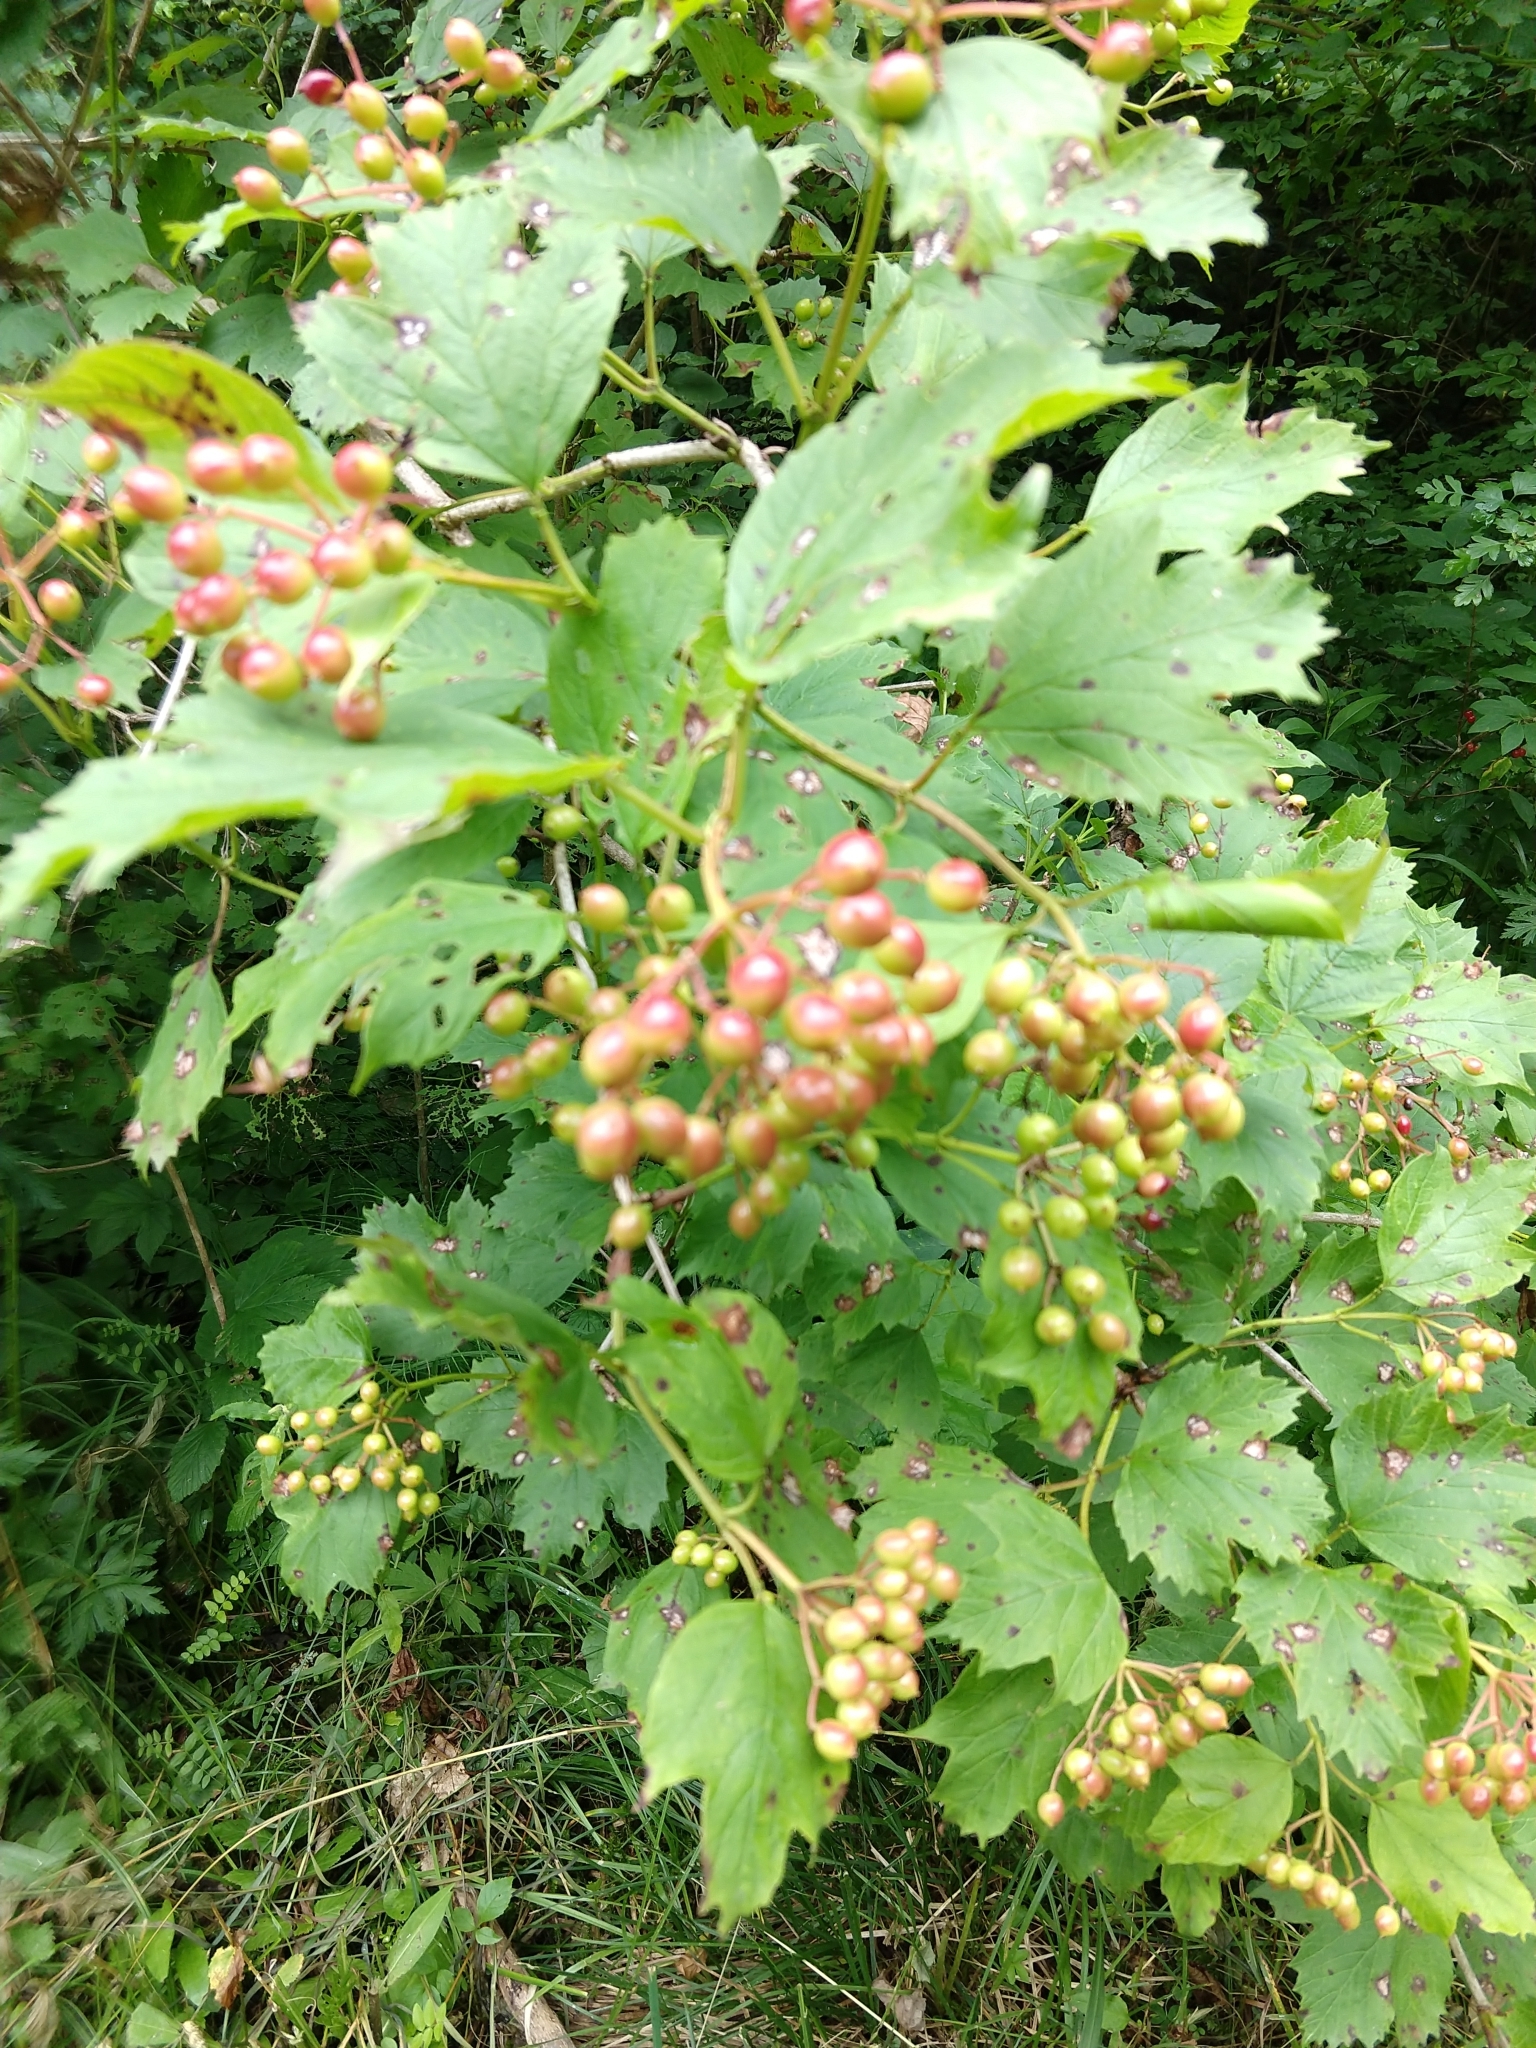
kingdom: Plantae
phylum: Tracheophyta
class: Magnoliopsida
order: Dipsacales
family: Viburnaceae
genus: Viburnum
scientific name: Viburnum opulus
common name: Guelder-rose
